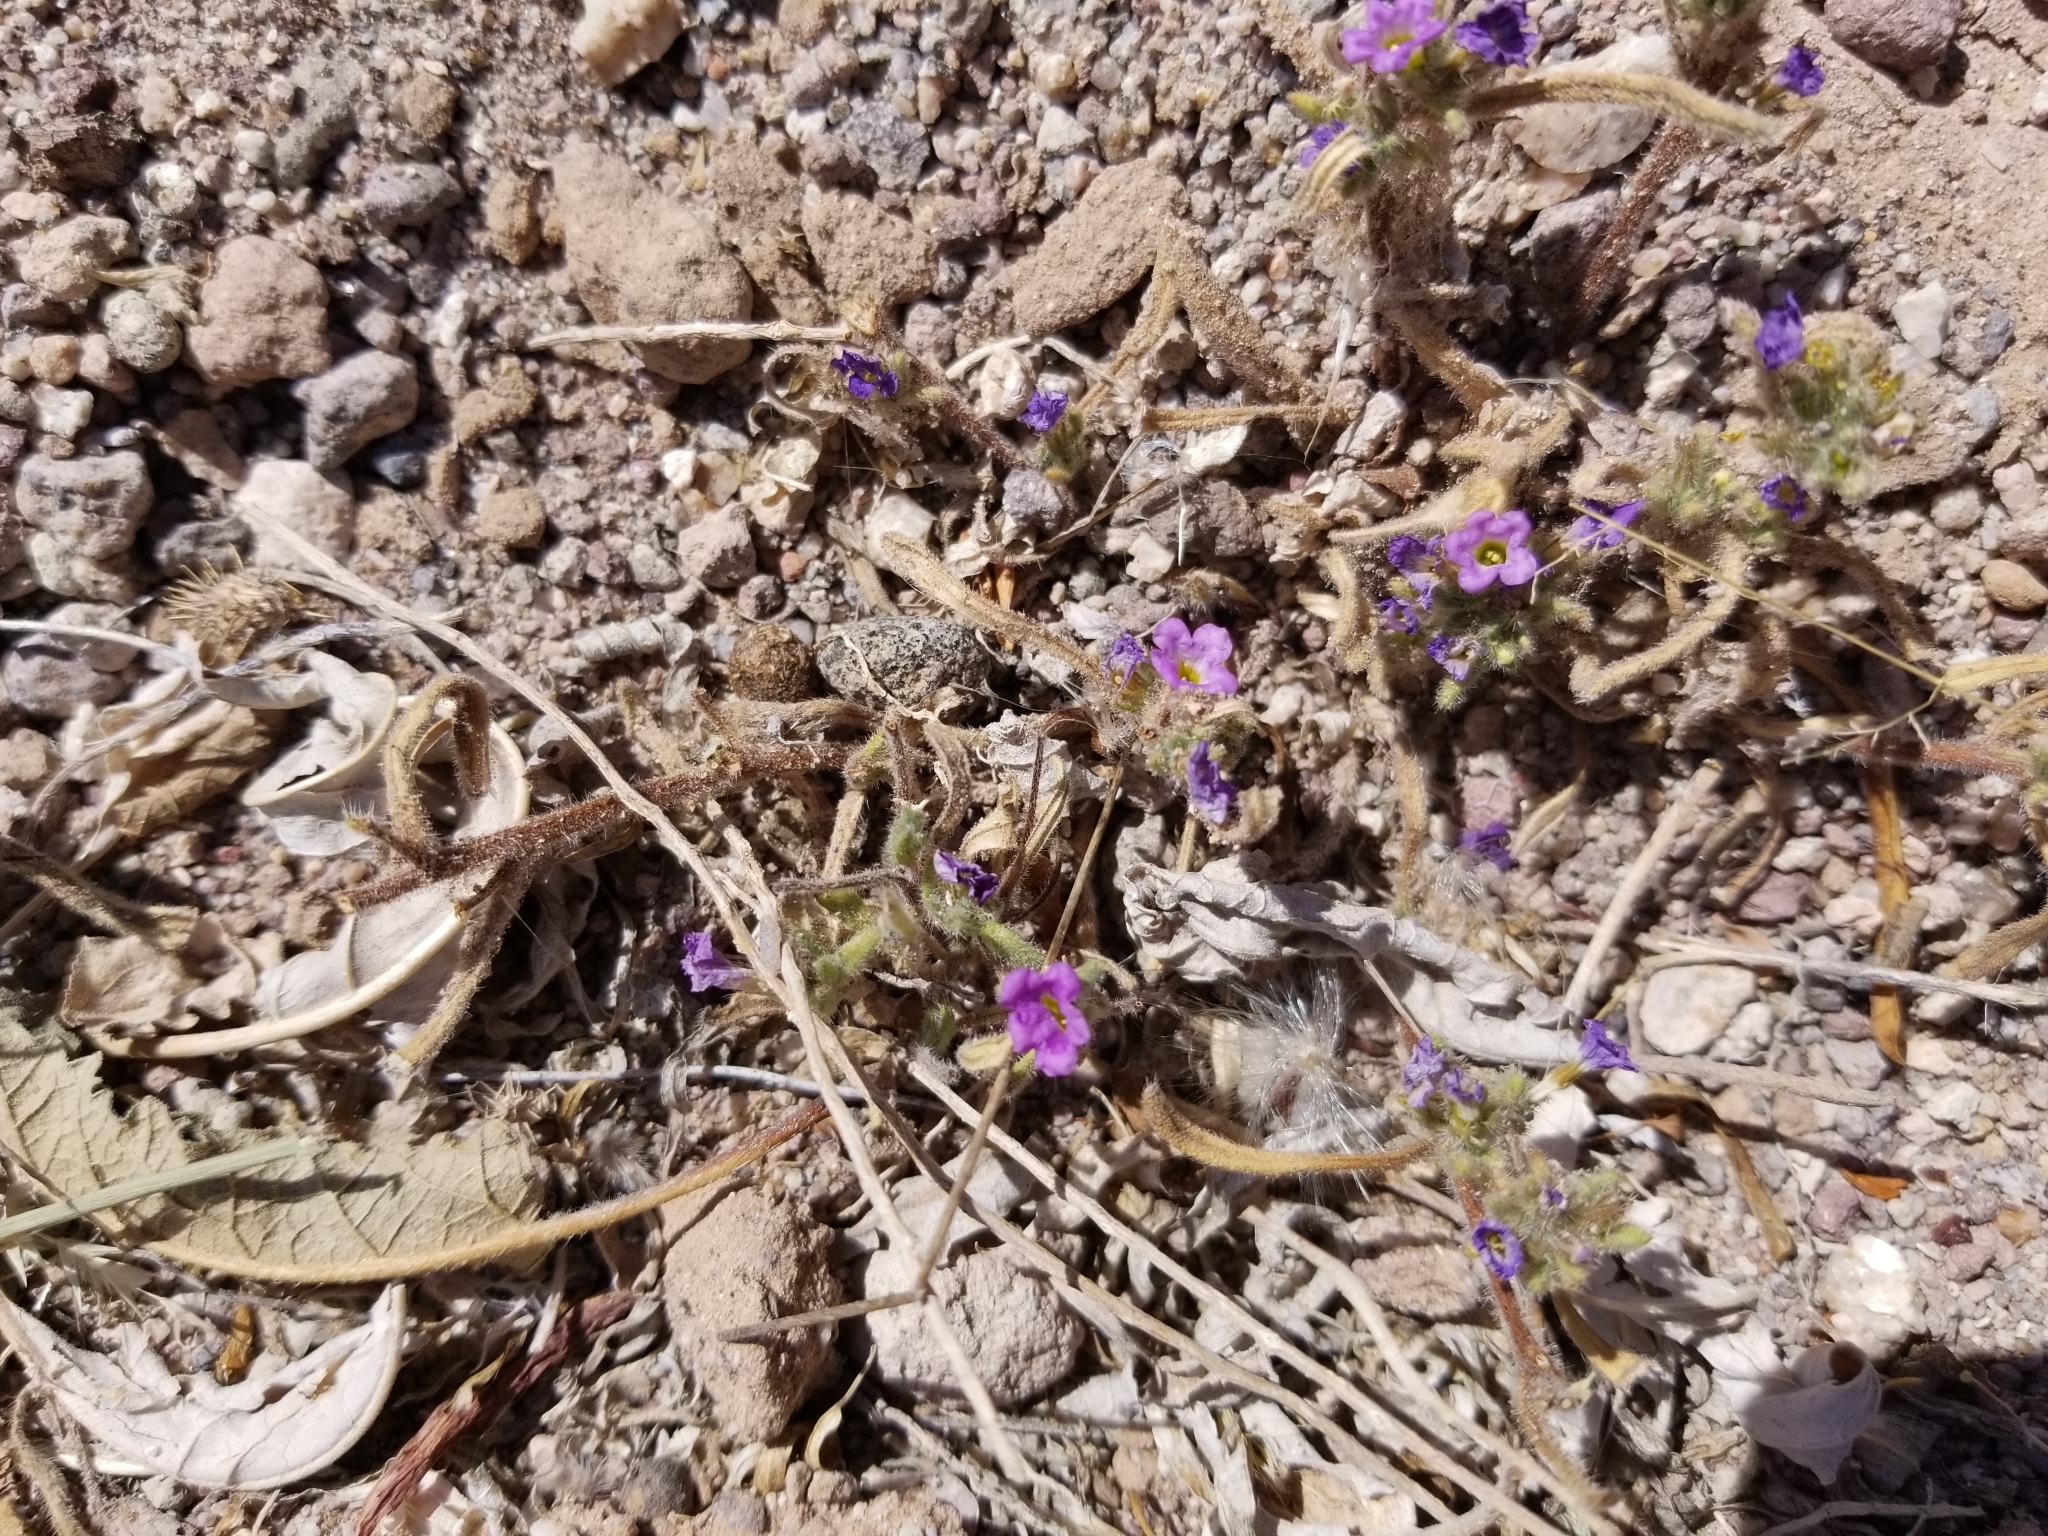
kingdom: Plantae
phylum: Tracheophyta
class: Magnoliopsida
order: Boraginales
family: Namaceae
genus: Nama
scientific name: Nama hispida
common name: Bristly nama
